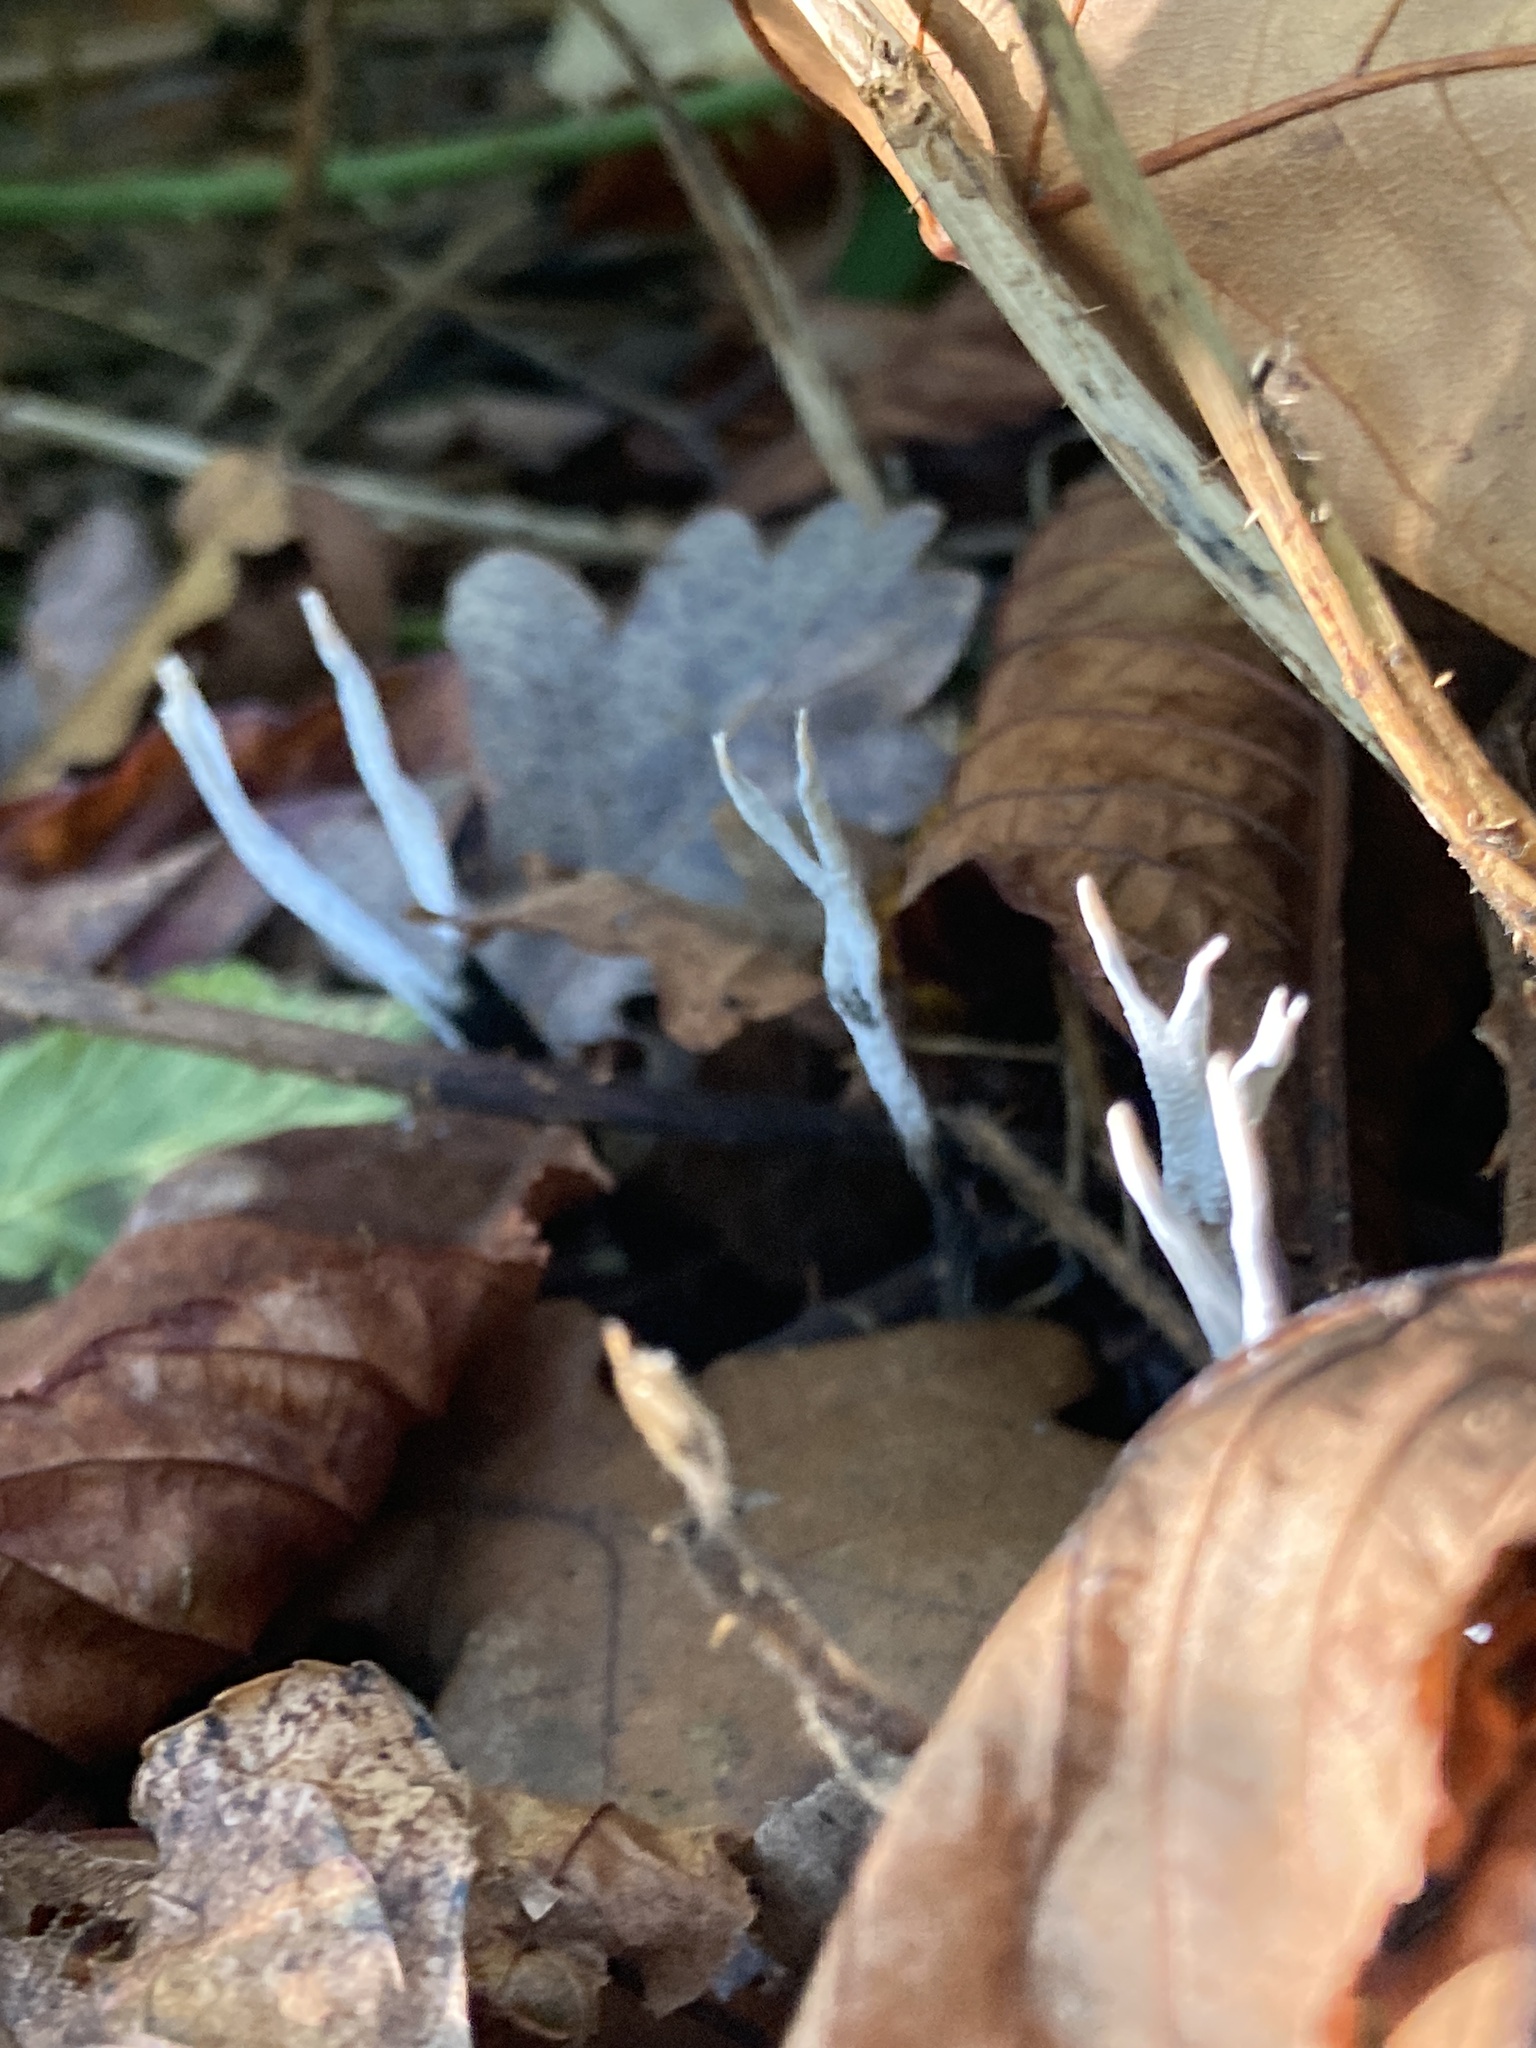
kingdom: Fungi
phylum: Ascomycota
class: Sordariomycetes
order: Xylariales
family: Xylariaceae
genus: Xylaria
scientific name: Xylaria hypoxylon
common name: Candle-snuff fungus
